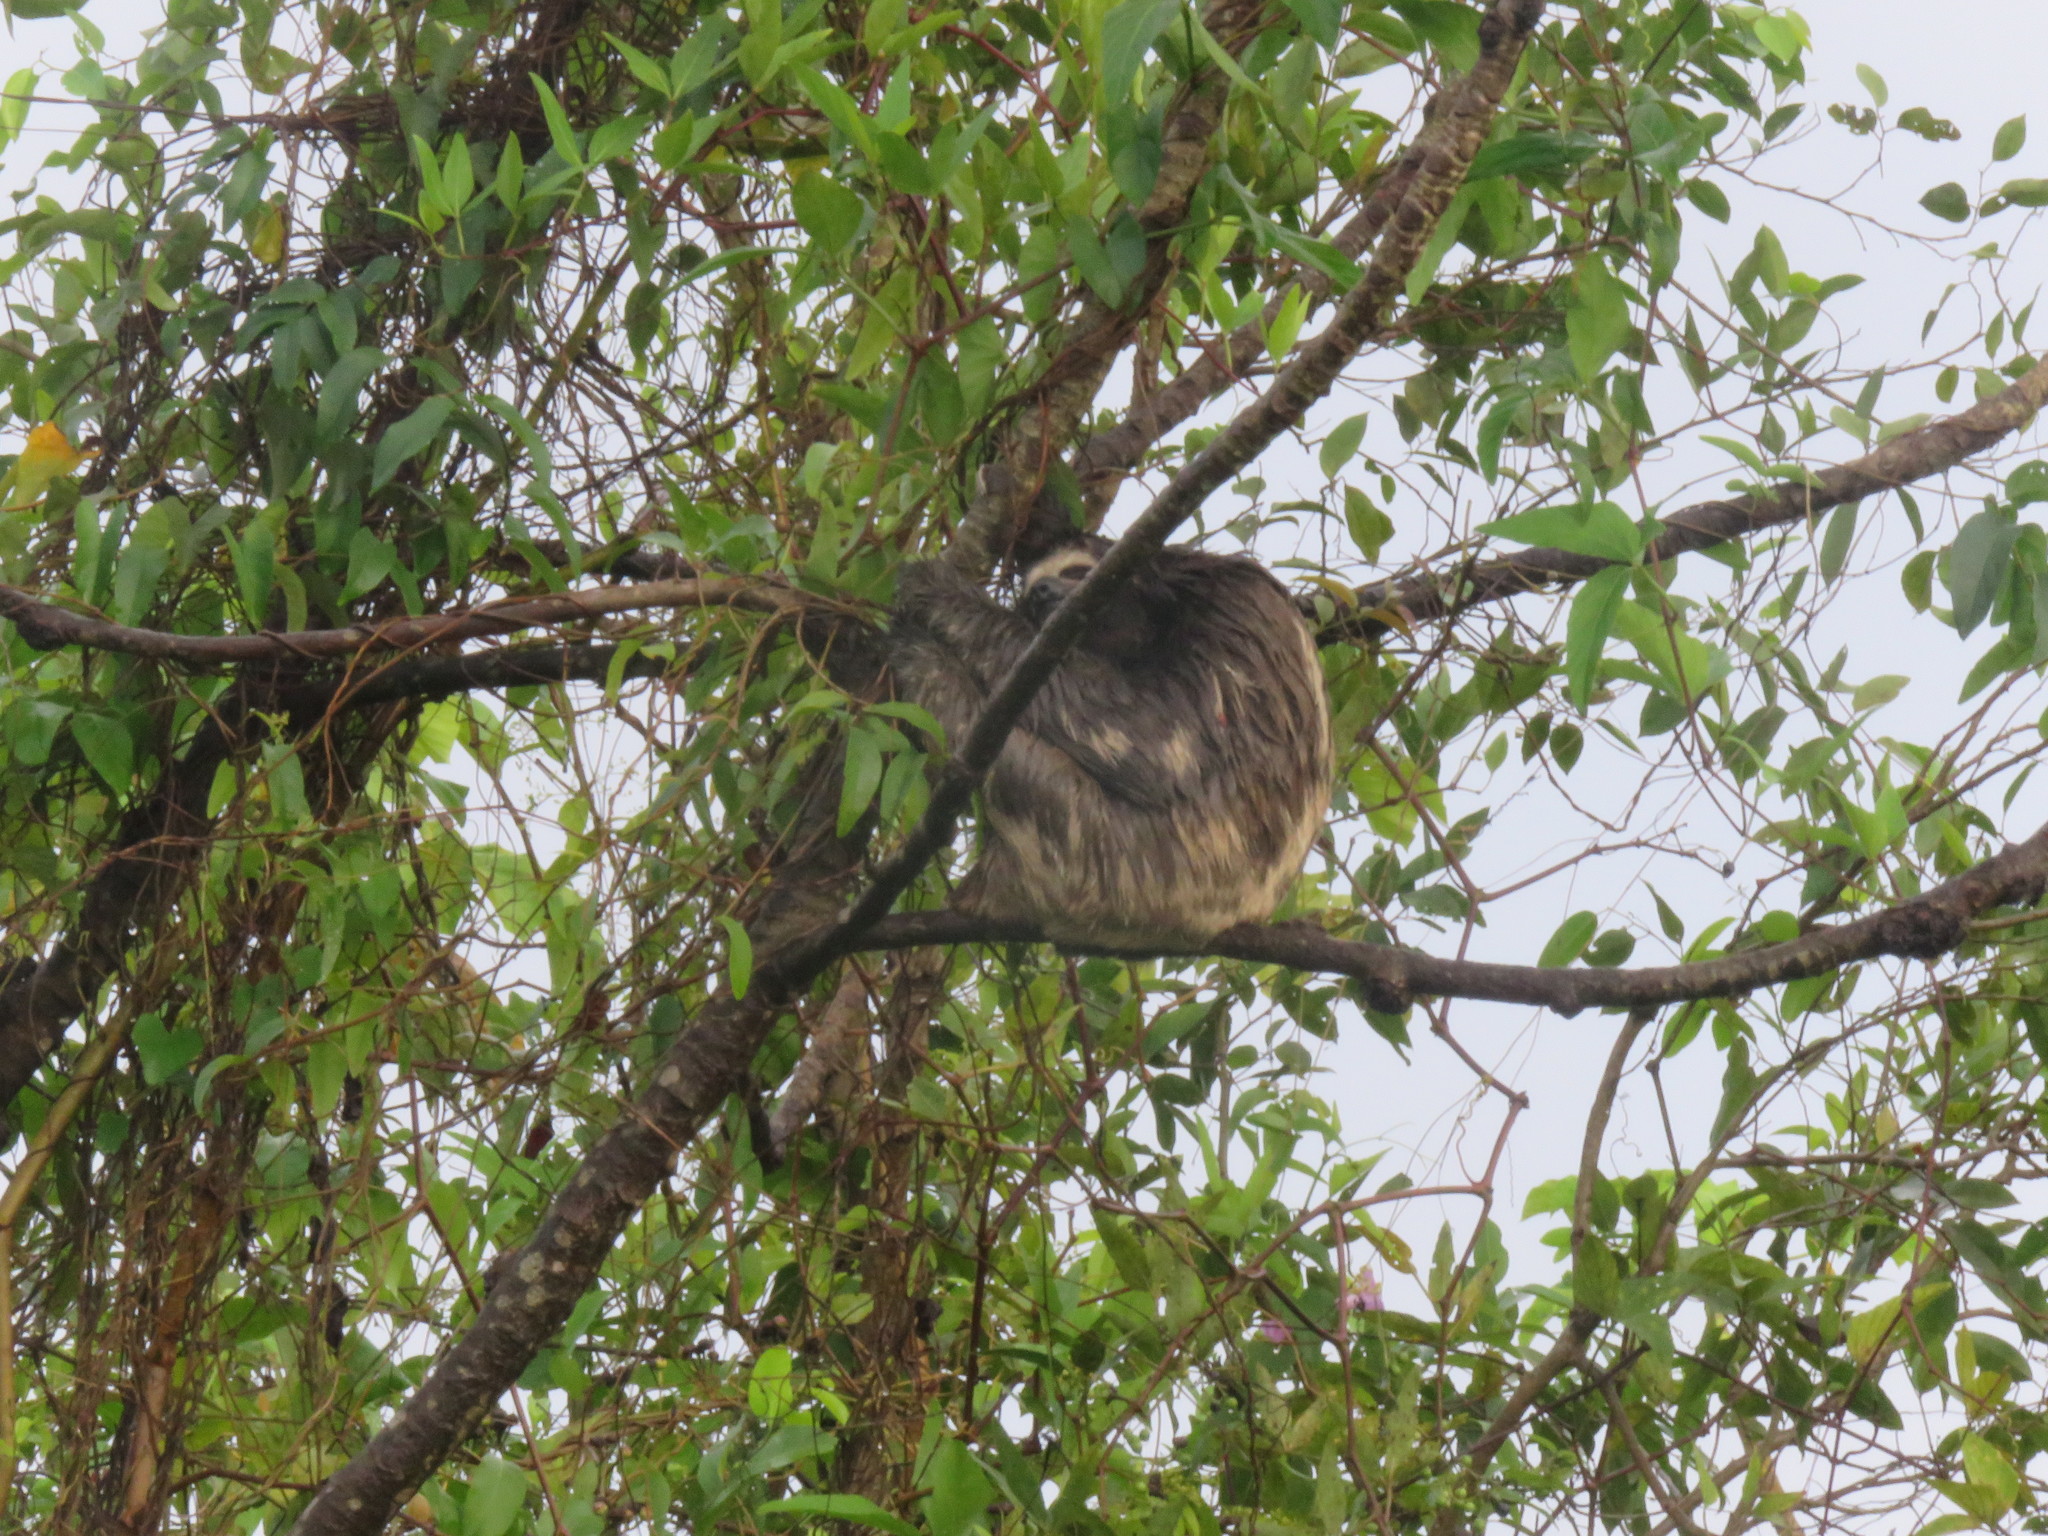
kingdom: Animalia
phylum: Chordata
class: Mammalia
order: Pilosa
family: Bradypodidae
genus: Bradypus
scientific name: Bradypus variegatus
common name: Brown-throated three-toed sloth
